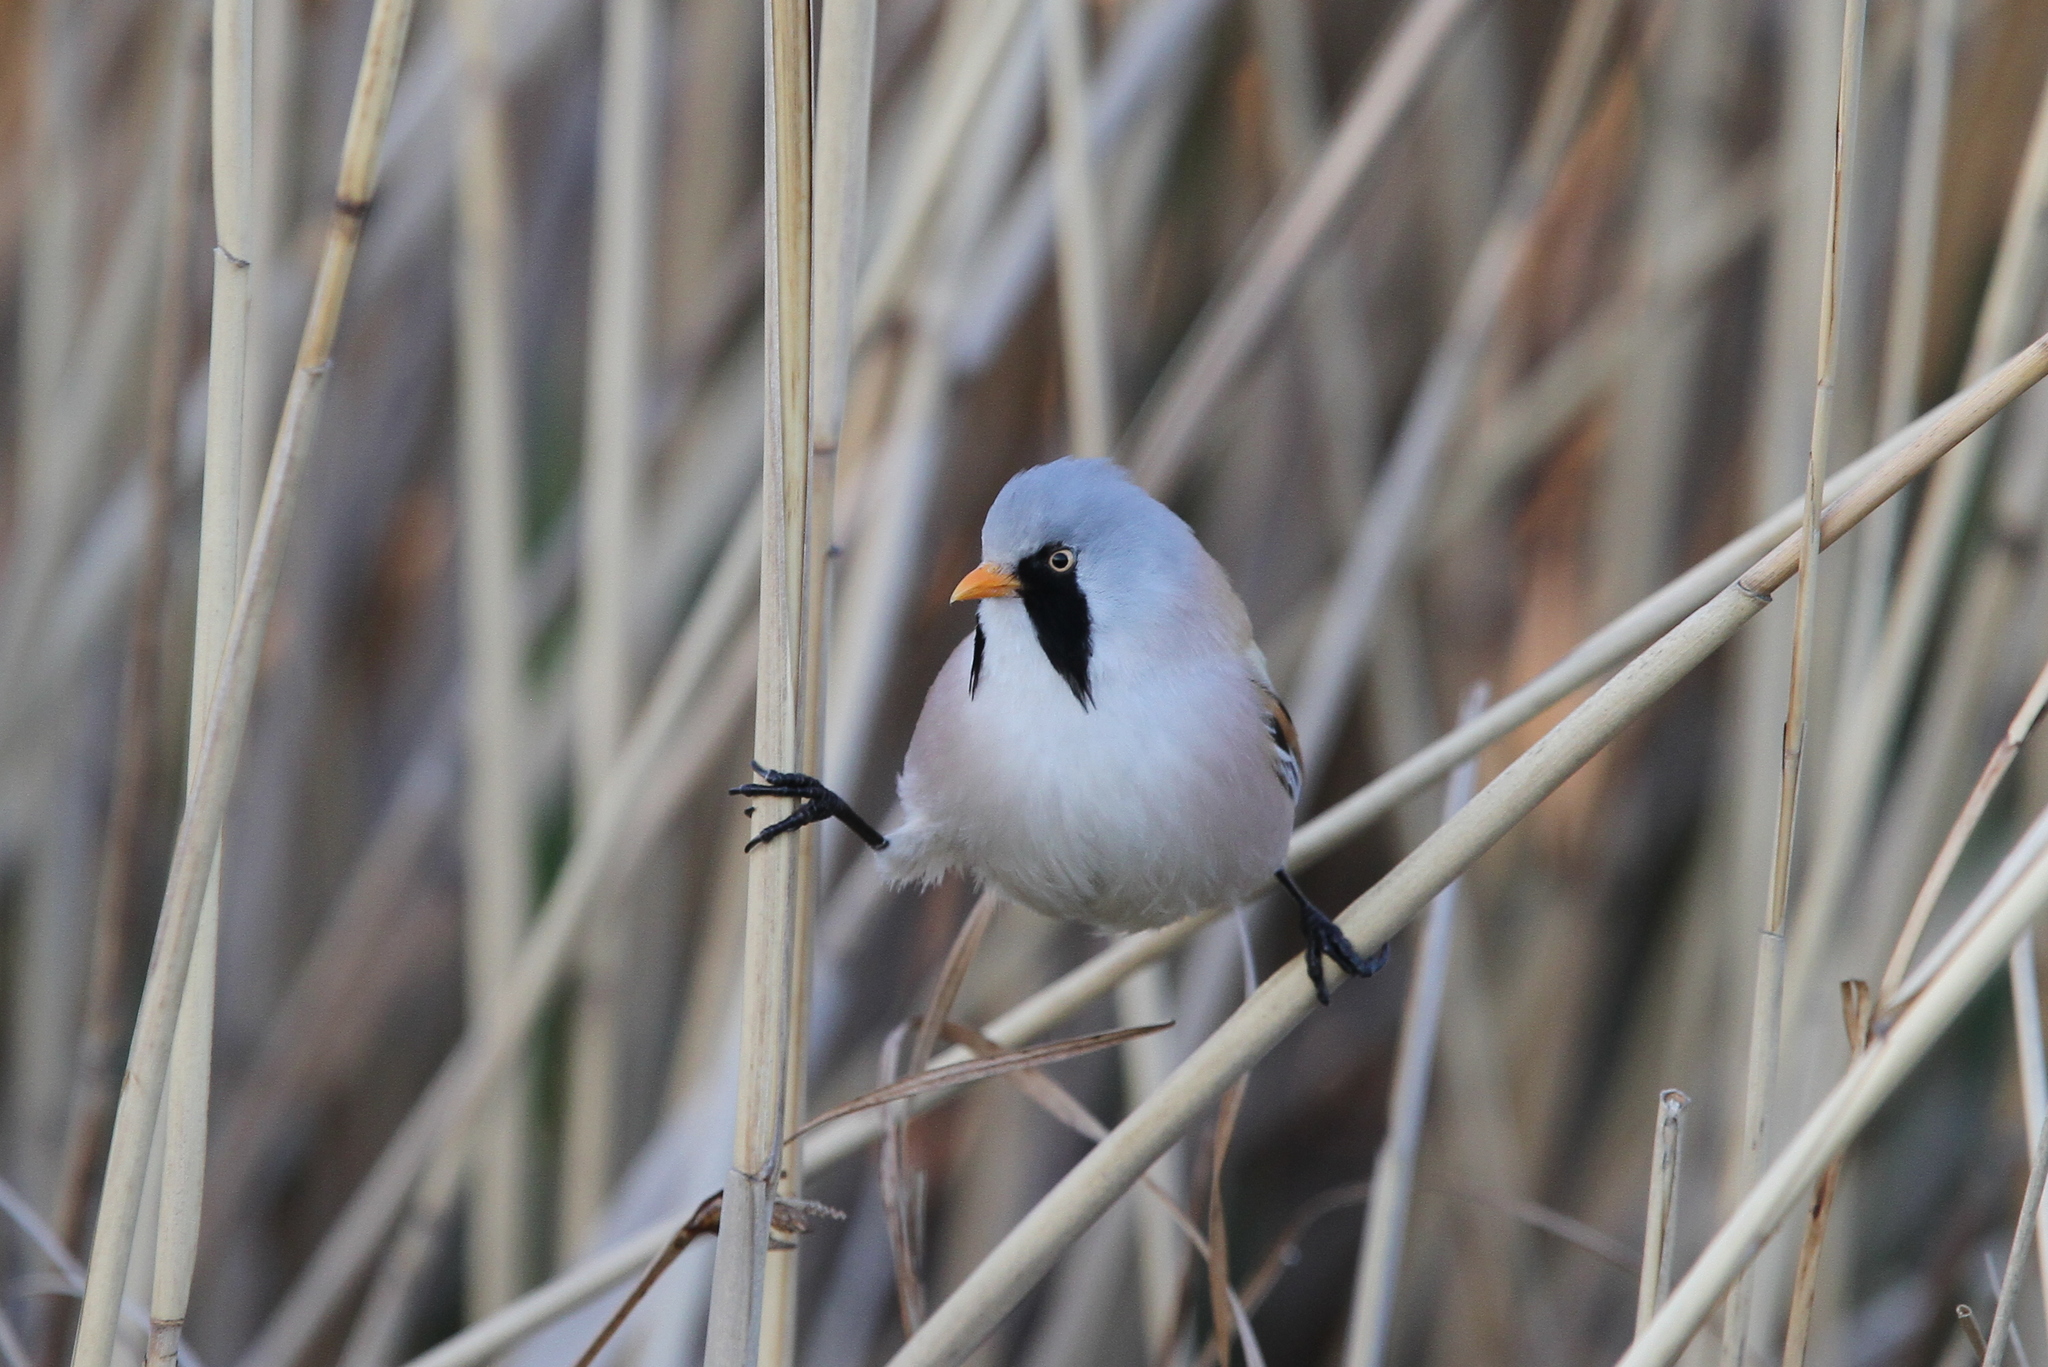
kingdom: Animalia
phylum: Chordata
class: Aves
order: Passeriformes
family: Panuridae
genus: Panurus
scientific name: Panurus biarmicus
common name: Bearded reedling
